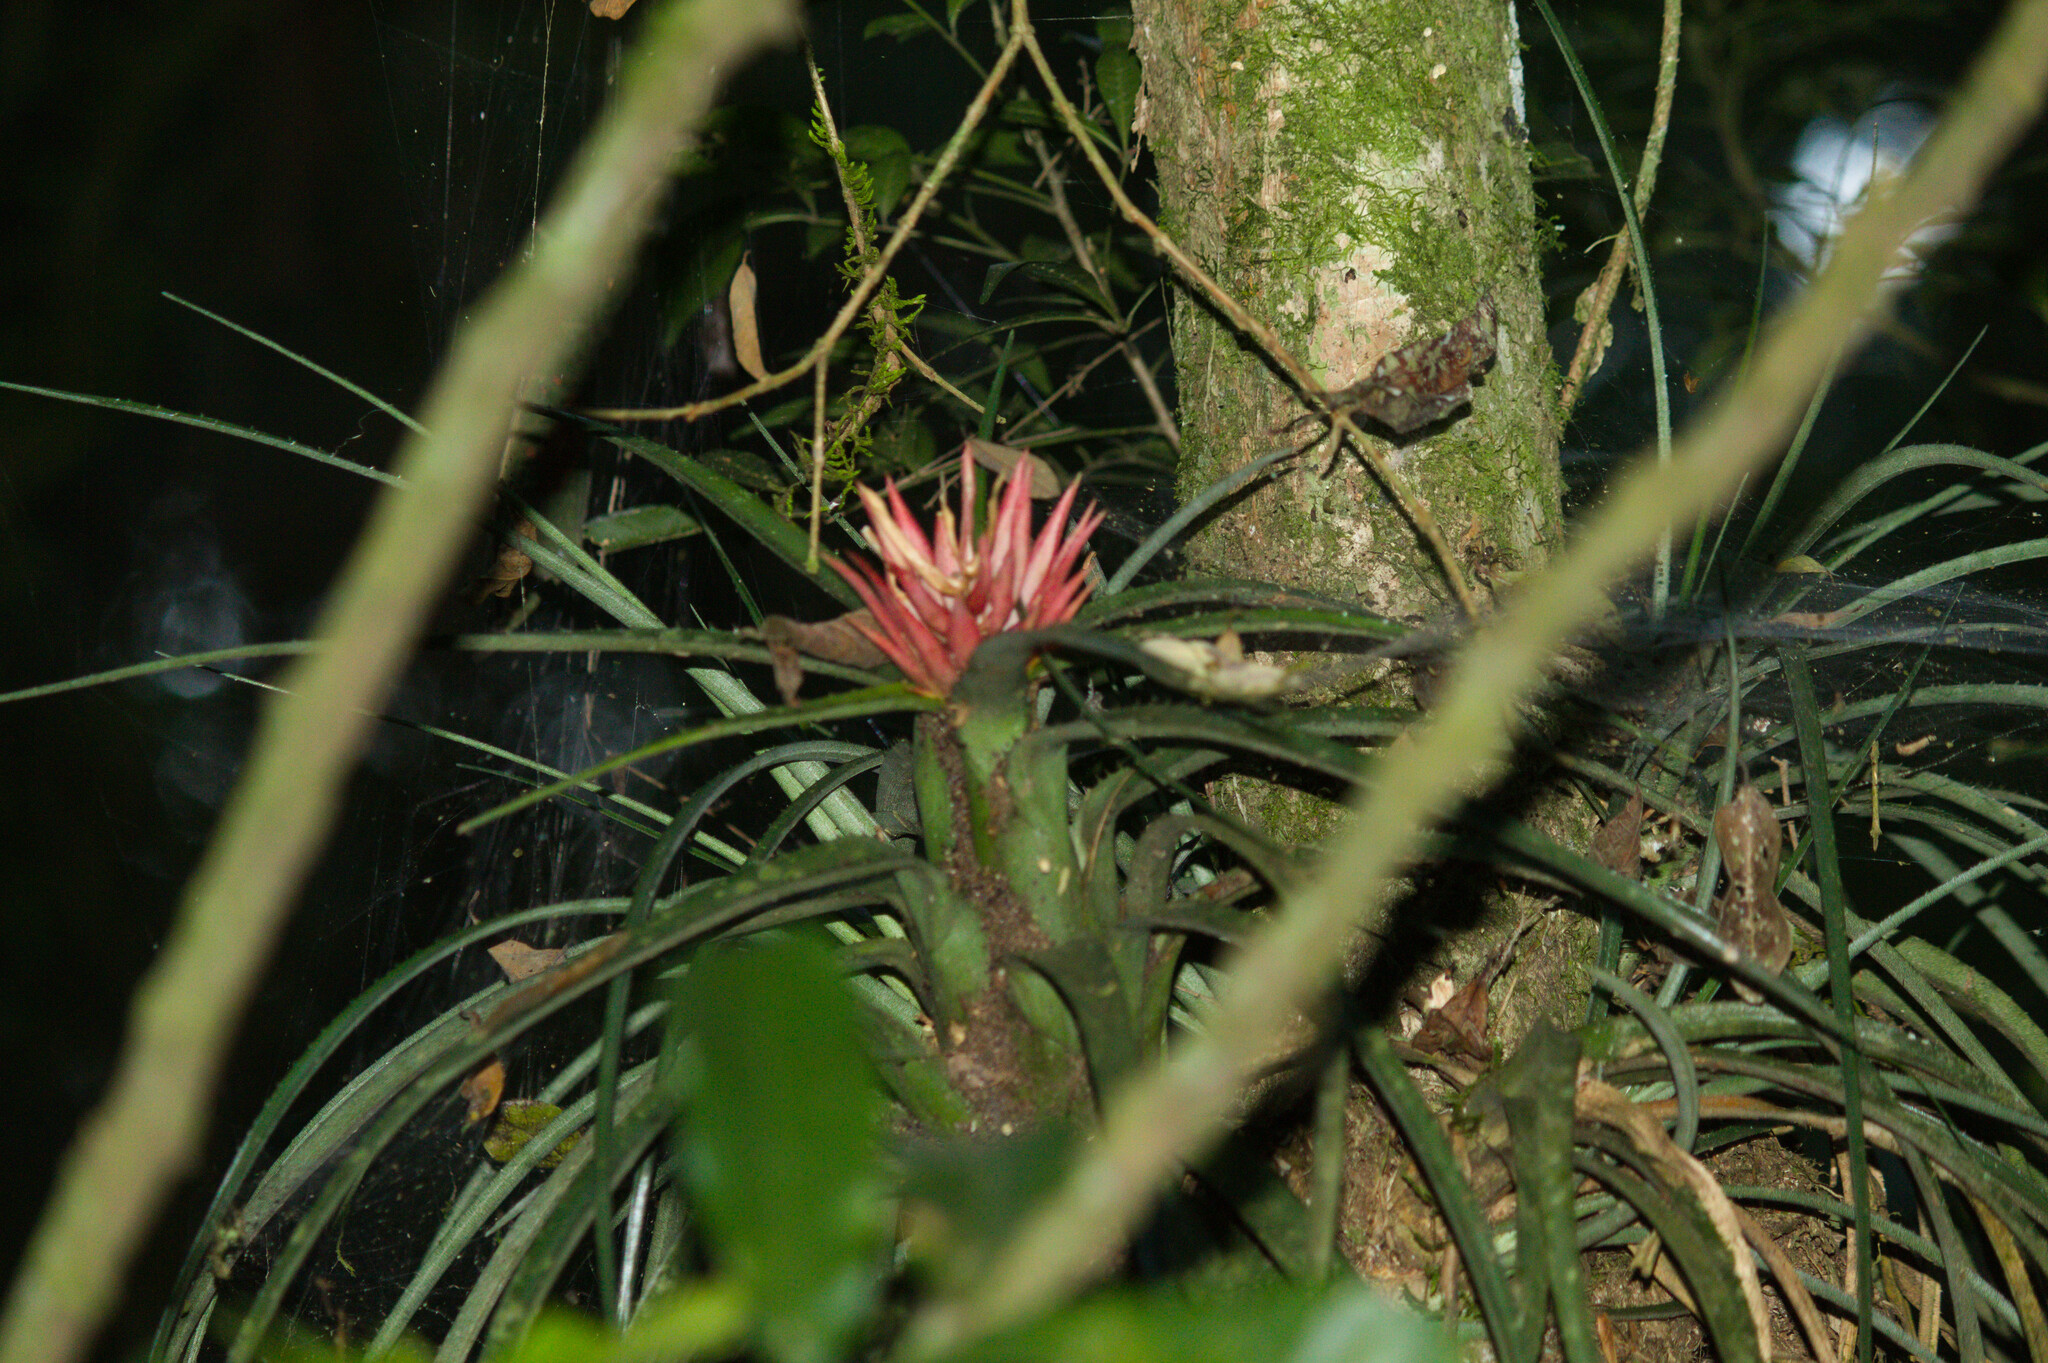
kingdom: Plantae
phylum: Tracheophyta
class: Liliopsida
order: Poales
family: Bromeliaceae
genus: Aechmea
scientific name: Aechmea recurvata
